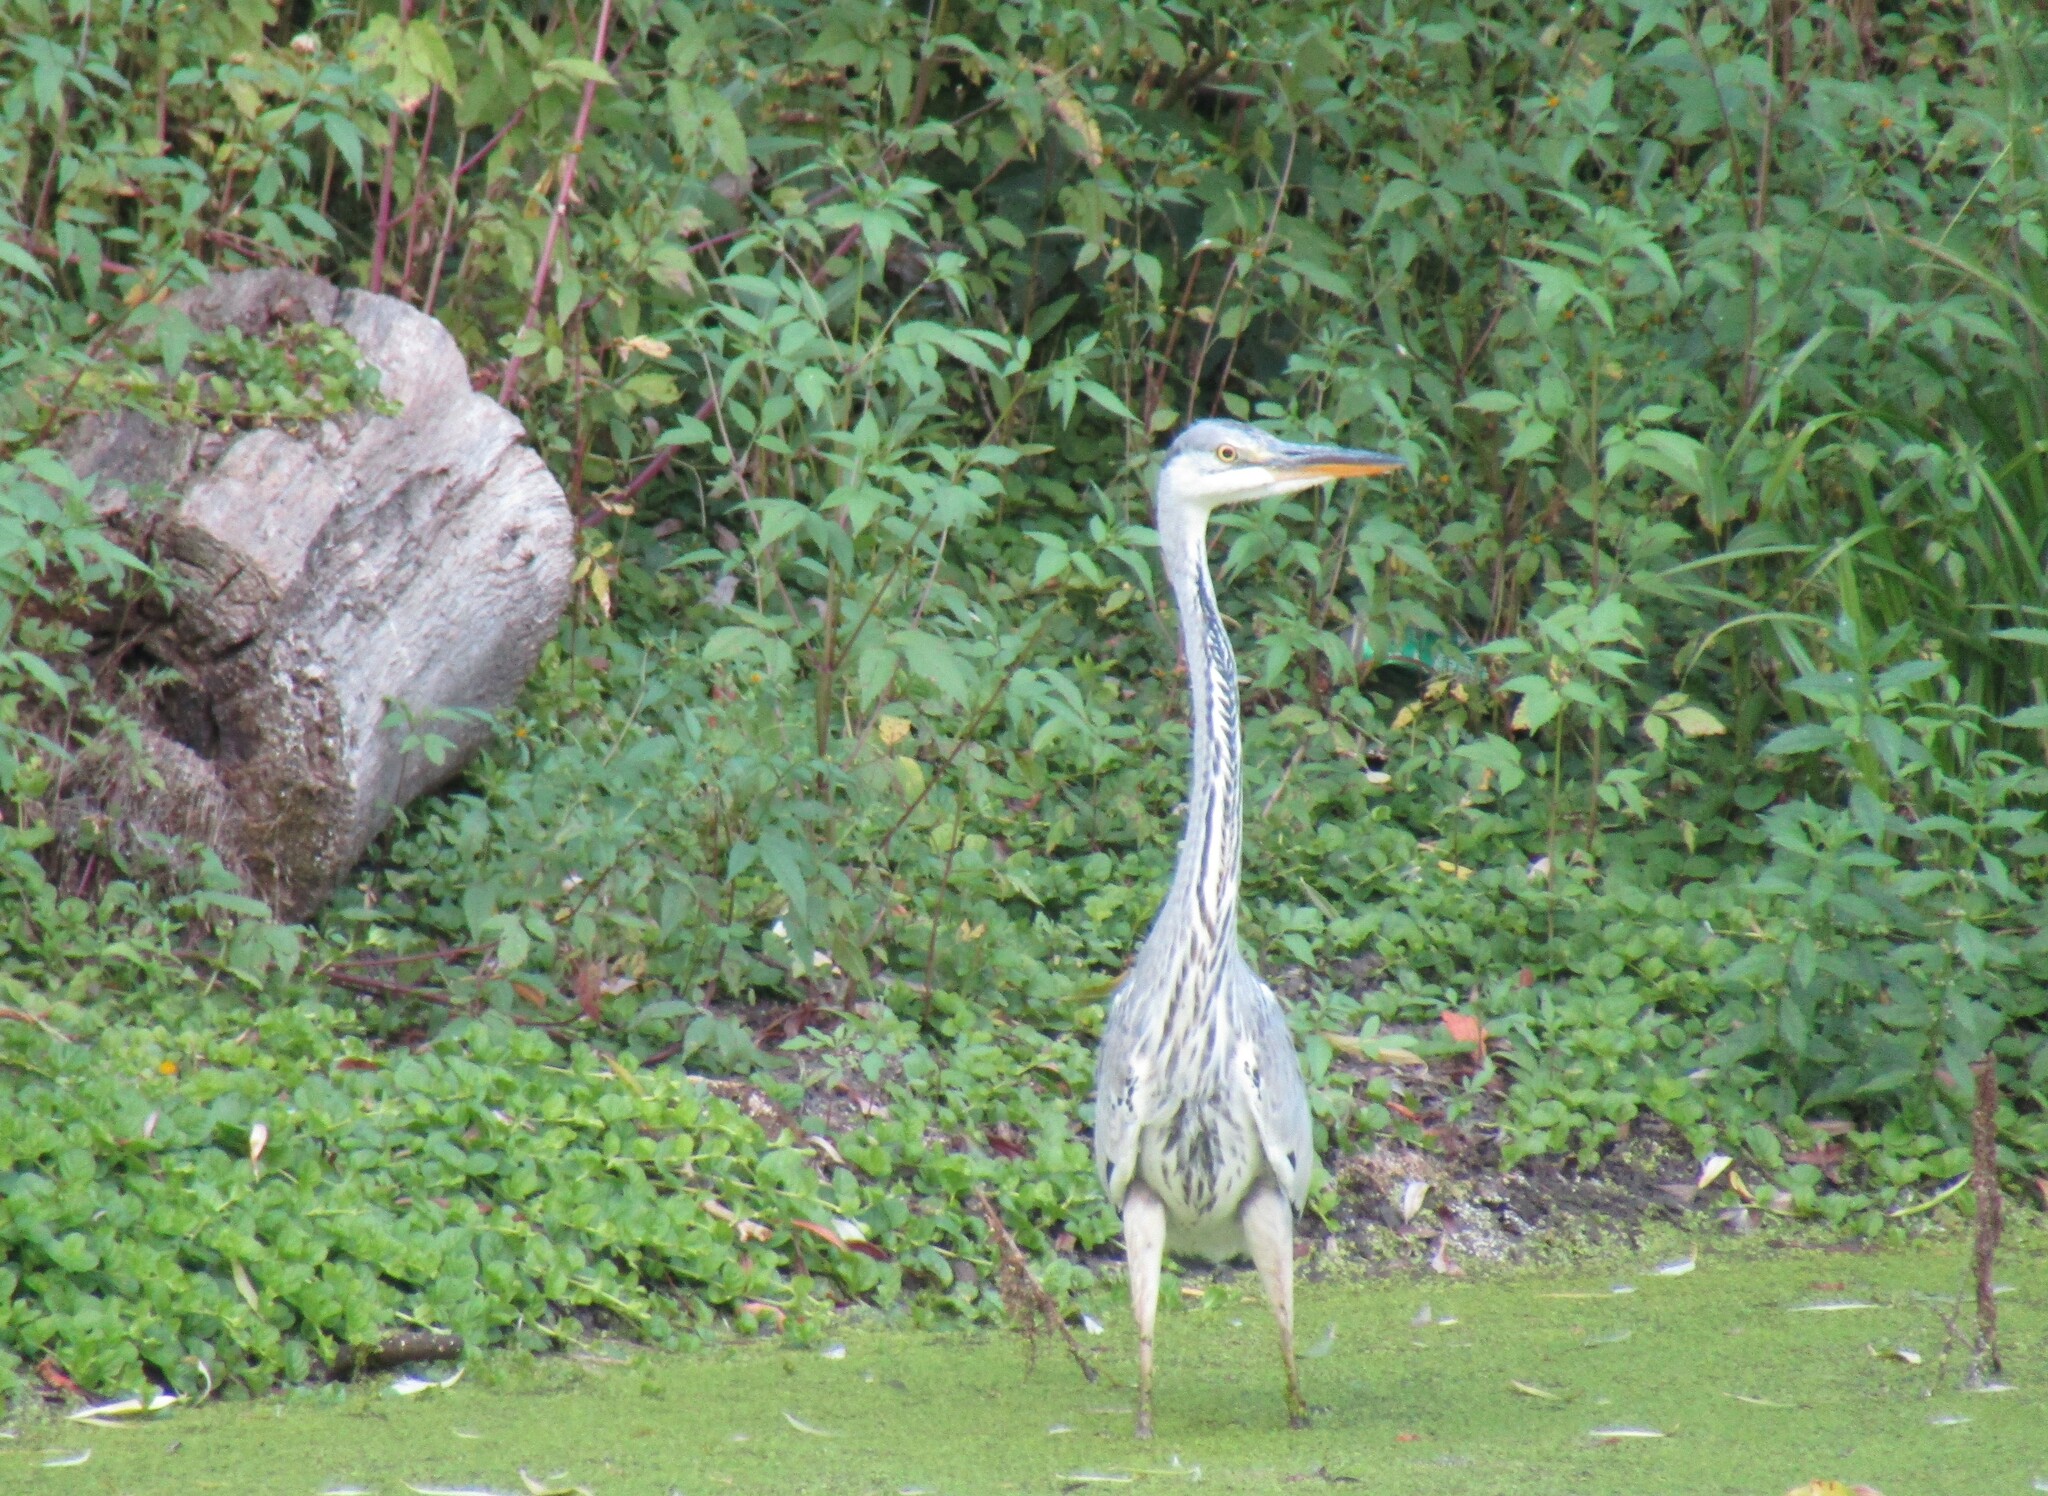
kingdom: Animalia
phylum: Chordata
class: Aves
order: Pelecaniformes
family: Ardeidae
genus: Ardea
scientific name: Ardea cinerea
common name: Grey heron
